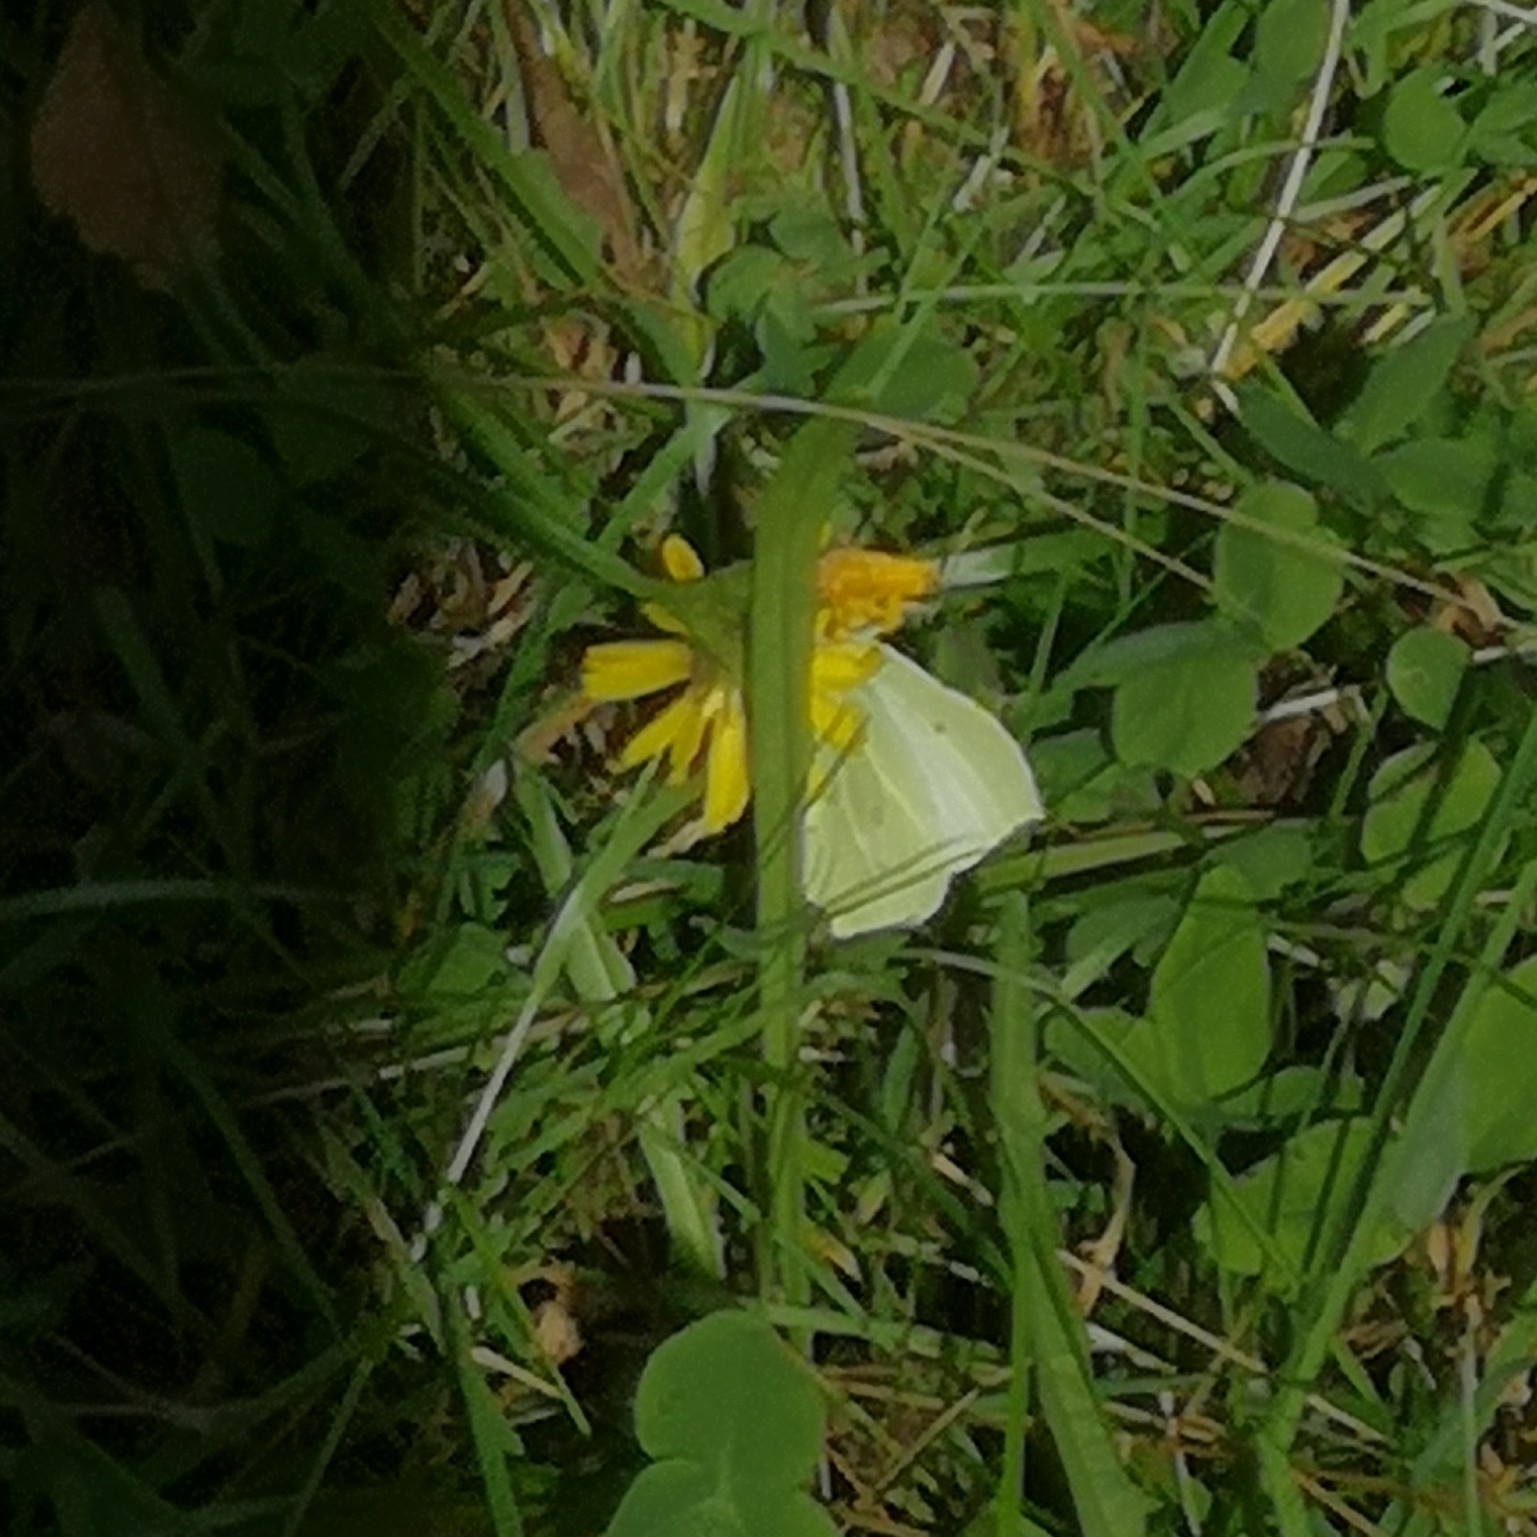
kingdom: Animalia
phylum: Arthropoda
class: Insecta
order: Lepidoptera
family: Pieridae
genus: Gonepteryx
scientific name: Gonepteryx rhamni
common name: Brimstone
